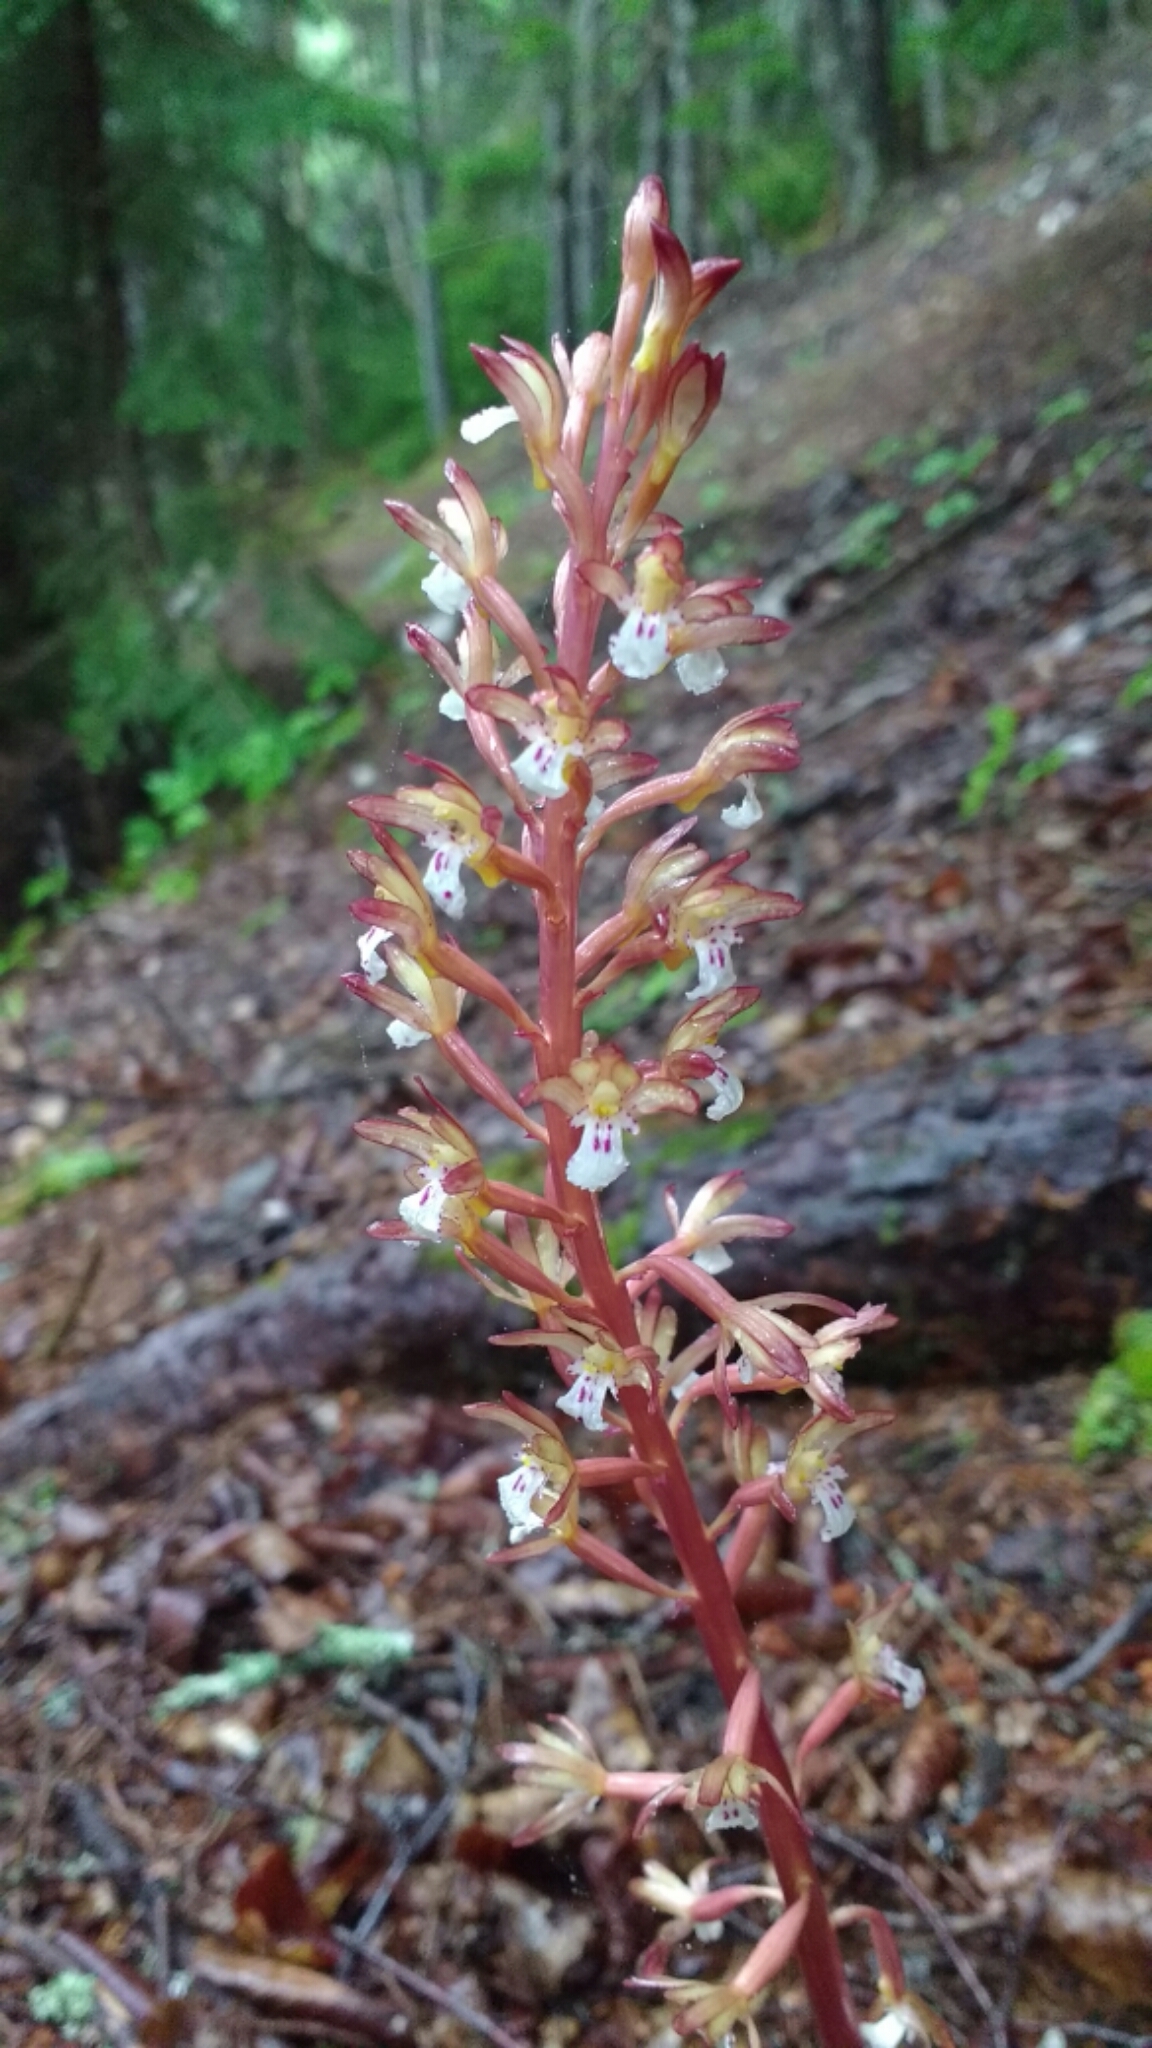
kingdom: Plantae
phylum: Tracheophyta
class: Liliopsida
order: Asparagales
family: Orchidaceae
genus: Corallorhiza
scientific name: Corallorhiza maculata
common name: Spotted coralroot
